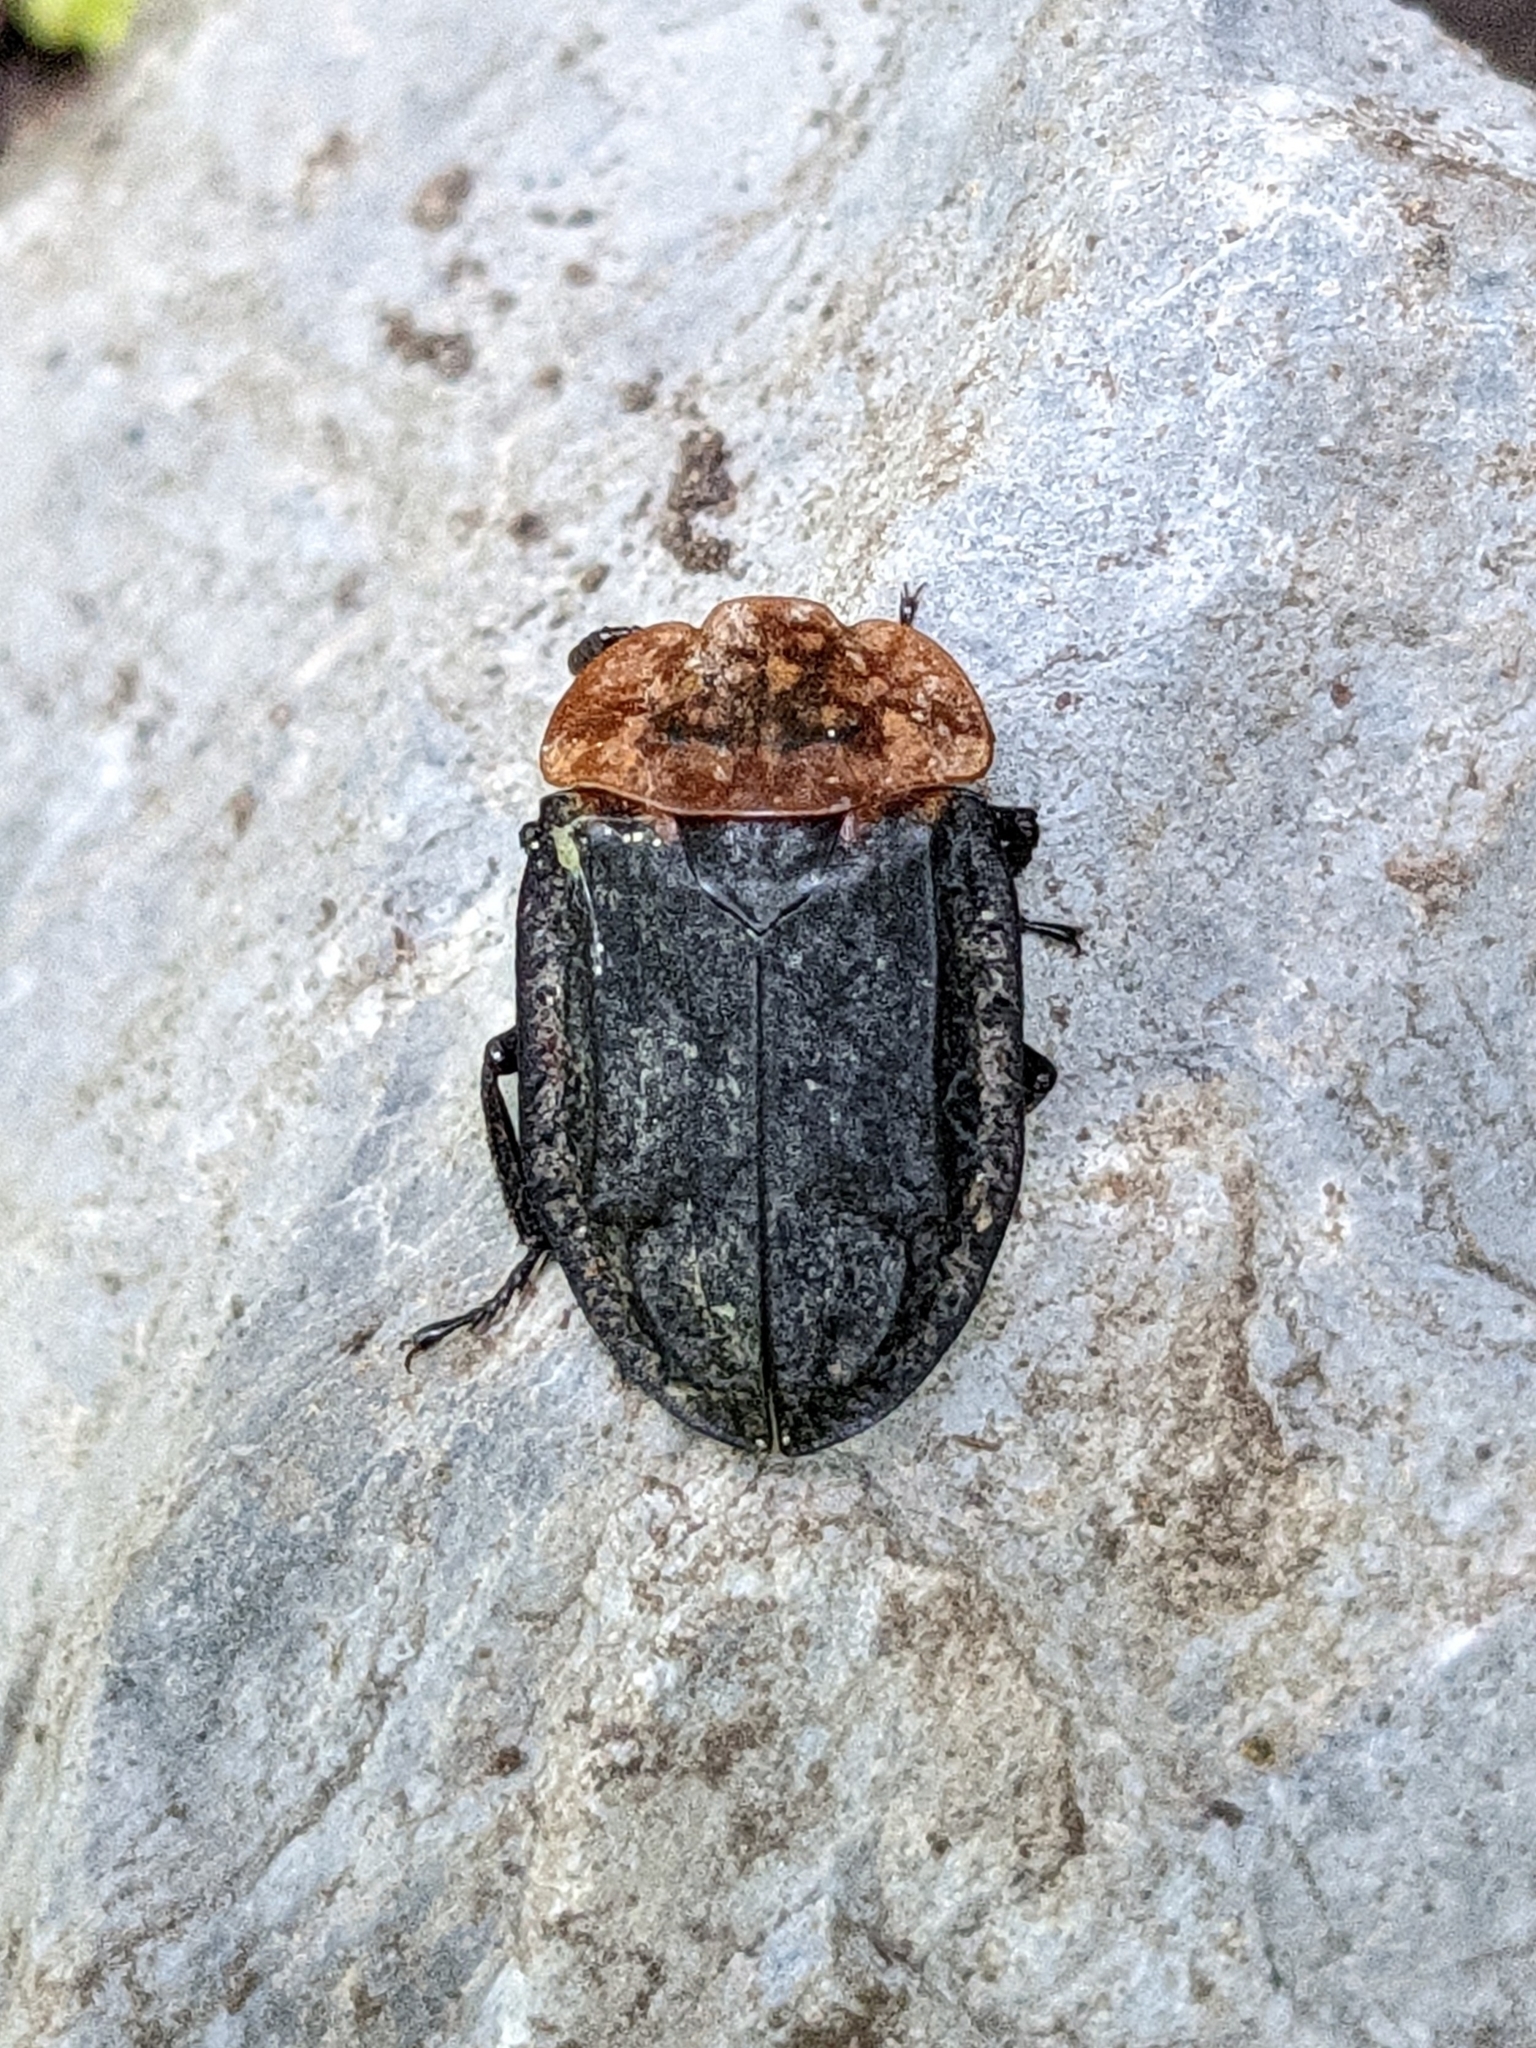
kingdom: Animalia
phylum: Arthropoda
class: Insecta
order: Coleoptera
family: Staphylinidae
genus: Oiceoptoma
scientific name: Oiceoptoma thoracicum
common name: Red-breasted carrion beetle
